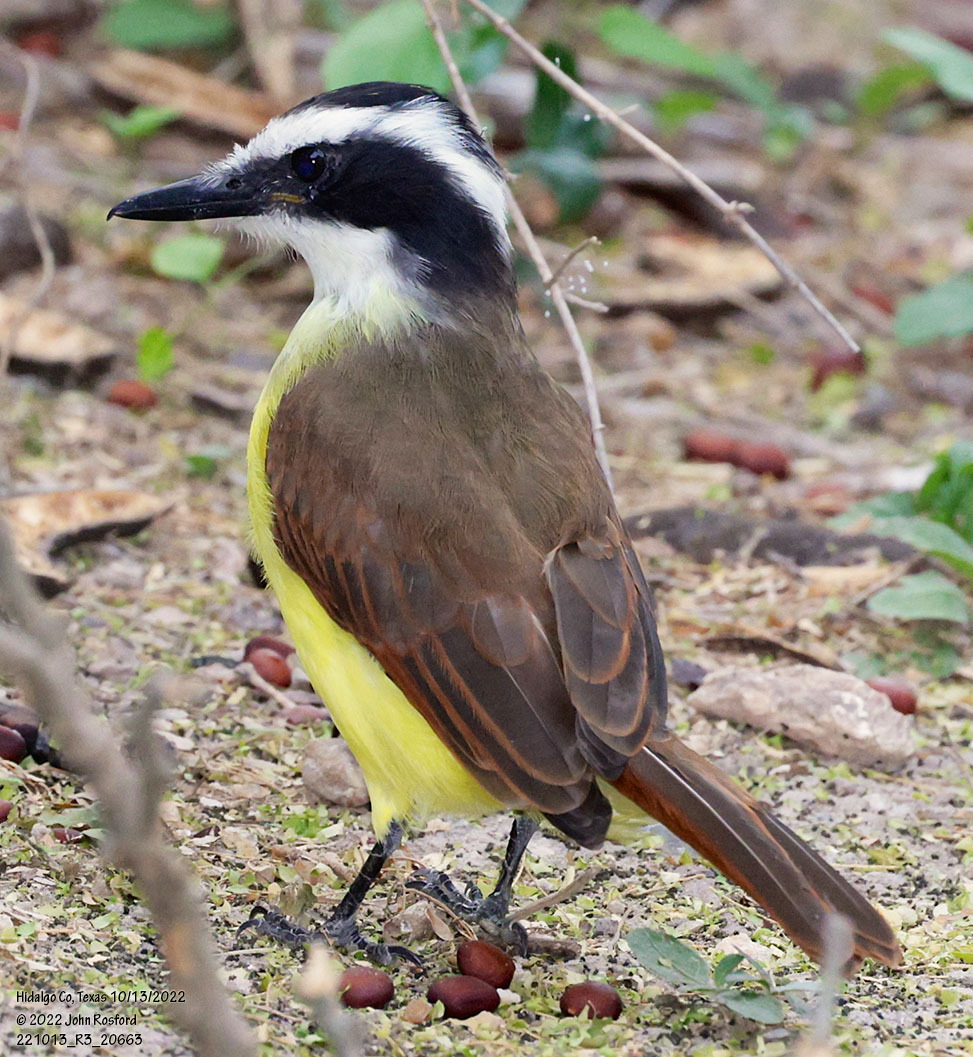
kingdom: Animalia
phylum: Chordata
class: Aves
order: Passeriformes
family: Tyrannidae
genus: Pitangus
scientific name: Pitangus sulphuratus
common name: Great kiskadee
